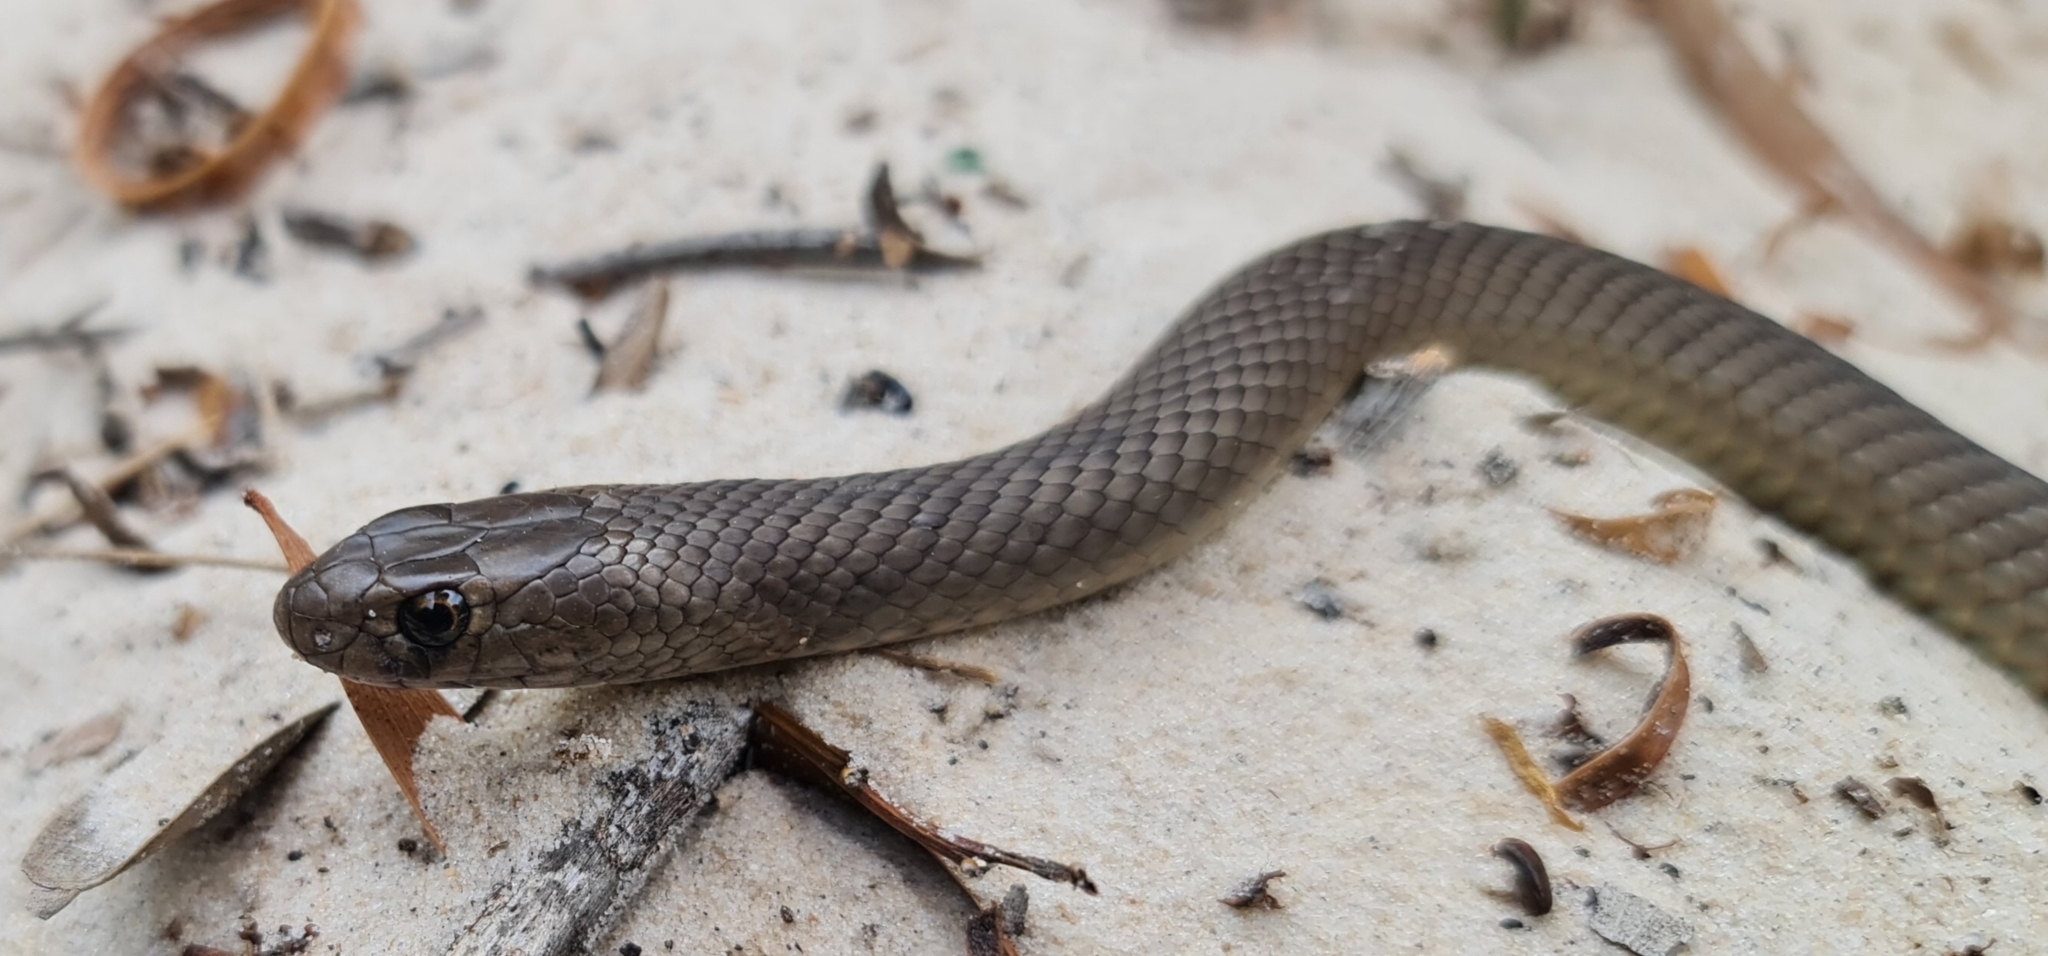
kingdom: Animalia
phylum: Chordata
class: Squamata
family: Elapidae
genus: Pseudonaja
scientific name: Pseudonaja textilis
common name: Eastern brown snake
